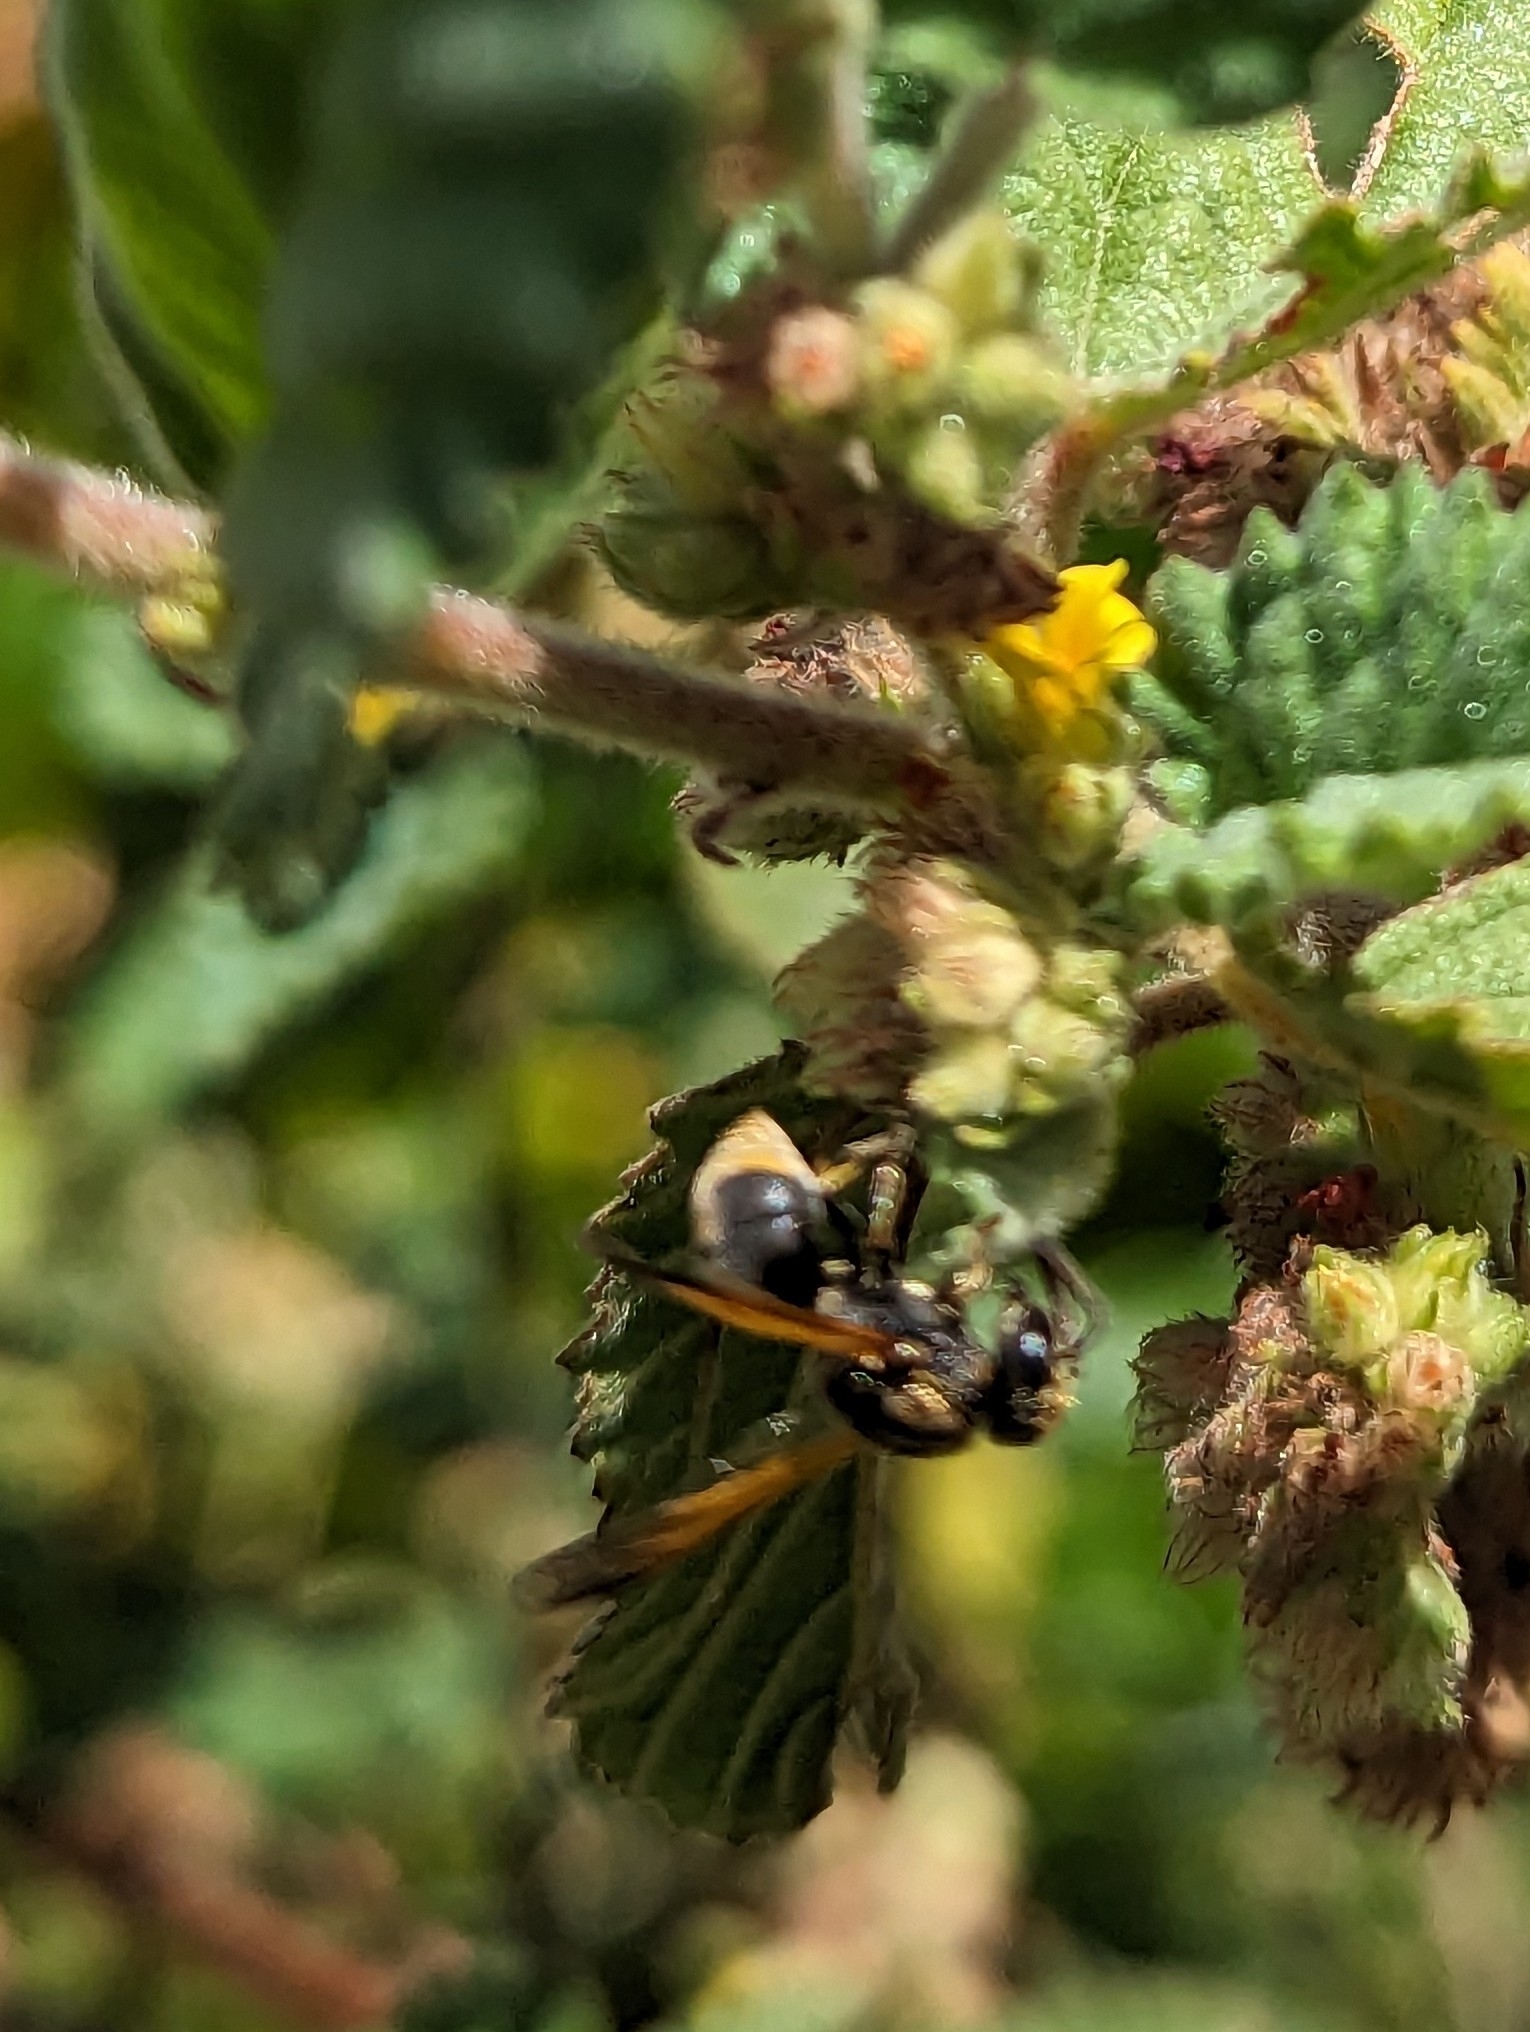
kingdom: Animalia
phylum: Arthropoda
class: Insecta
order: Hymenoptera
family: Eumenidae
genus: Pachodynerus
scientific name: Pachodynerus nasidens
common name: Key hole wasp
